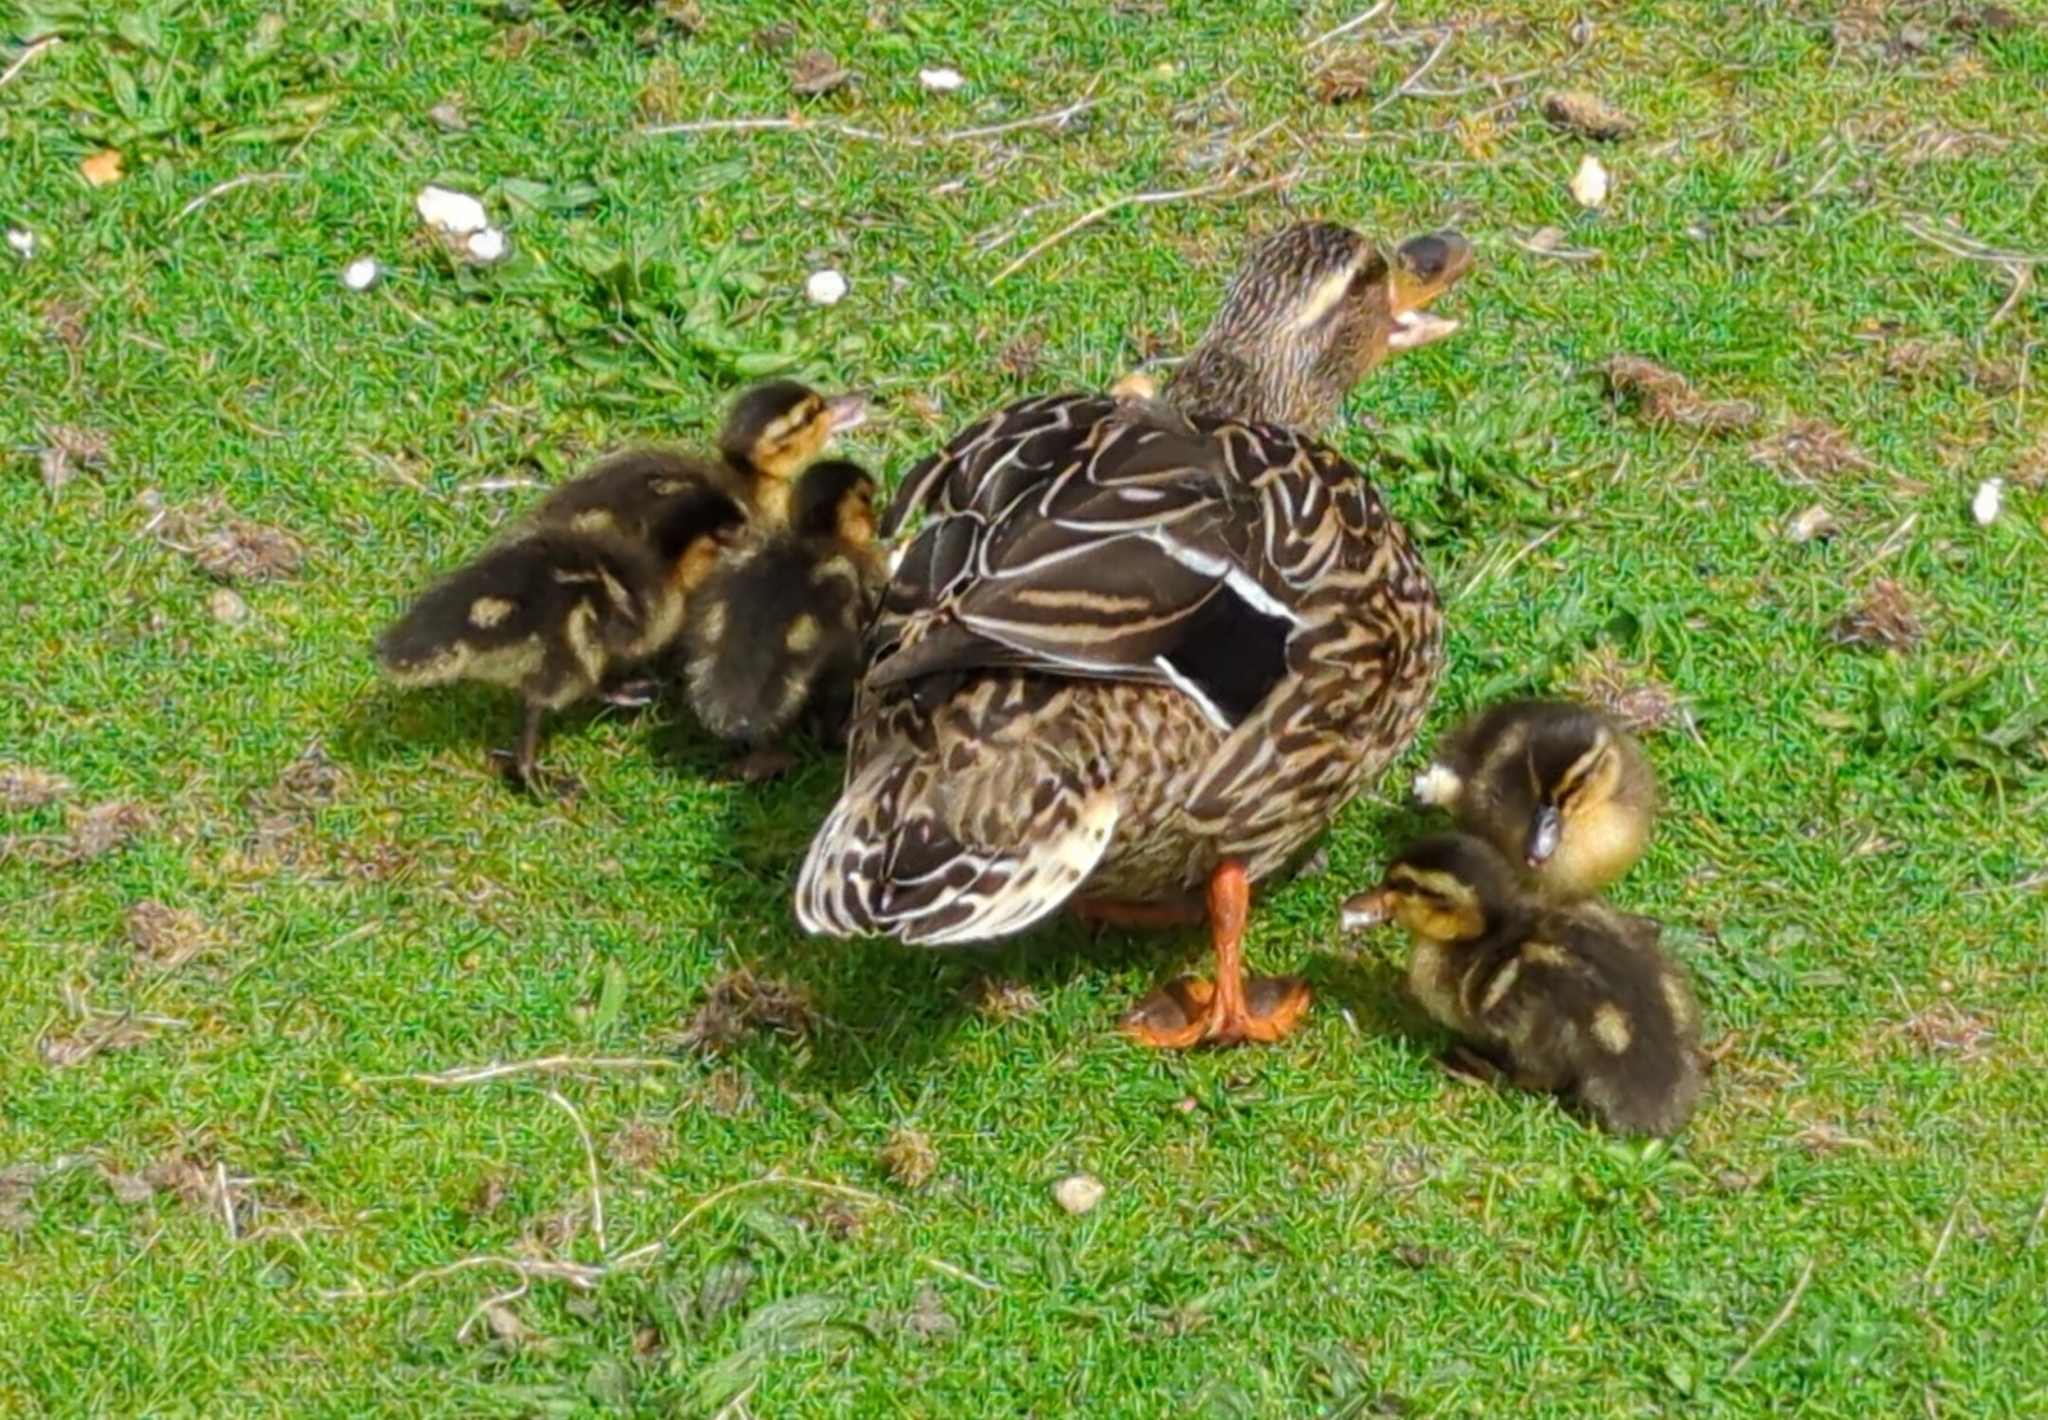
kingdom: Animalia
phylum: Chordata
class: Aves
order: Anseriformes
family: Anatidae
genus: Anas
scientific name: Anas platyrhynchos
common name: Mallard
